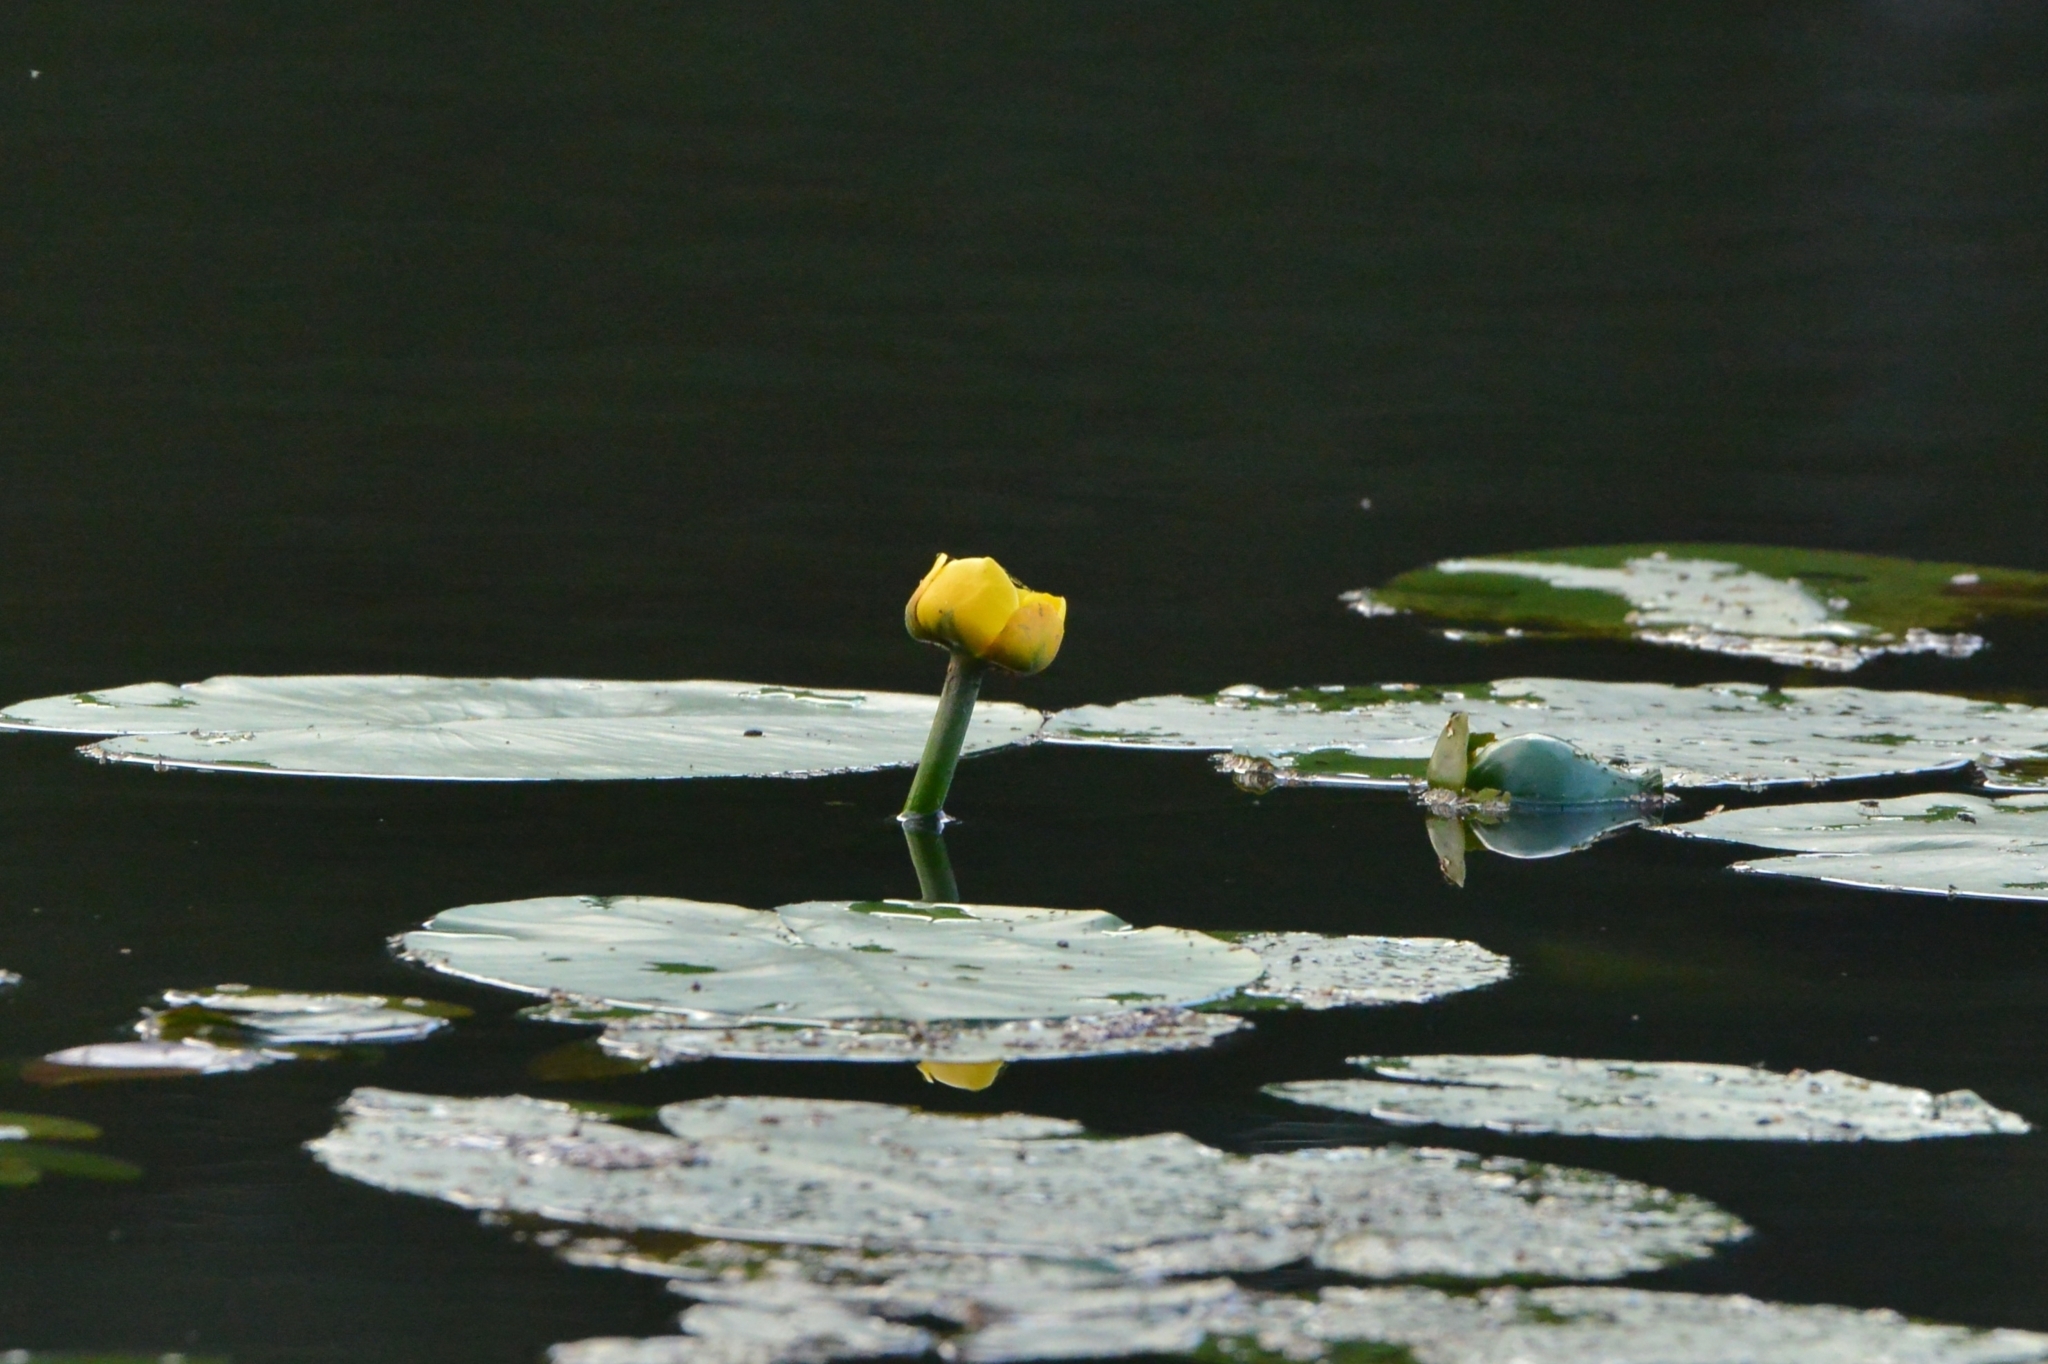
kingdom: Plantae
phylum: Tracheophyta
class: Magnoliopsida
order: Nymphaeales
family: Nymphaeaceae
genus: Nuphar
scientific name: Nuphar lutea
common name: Yellow water-lily
